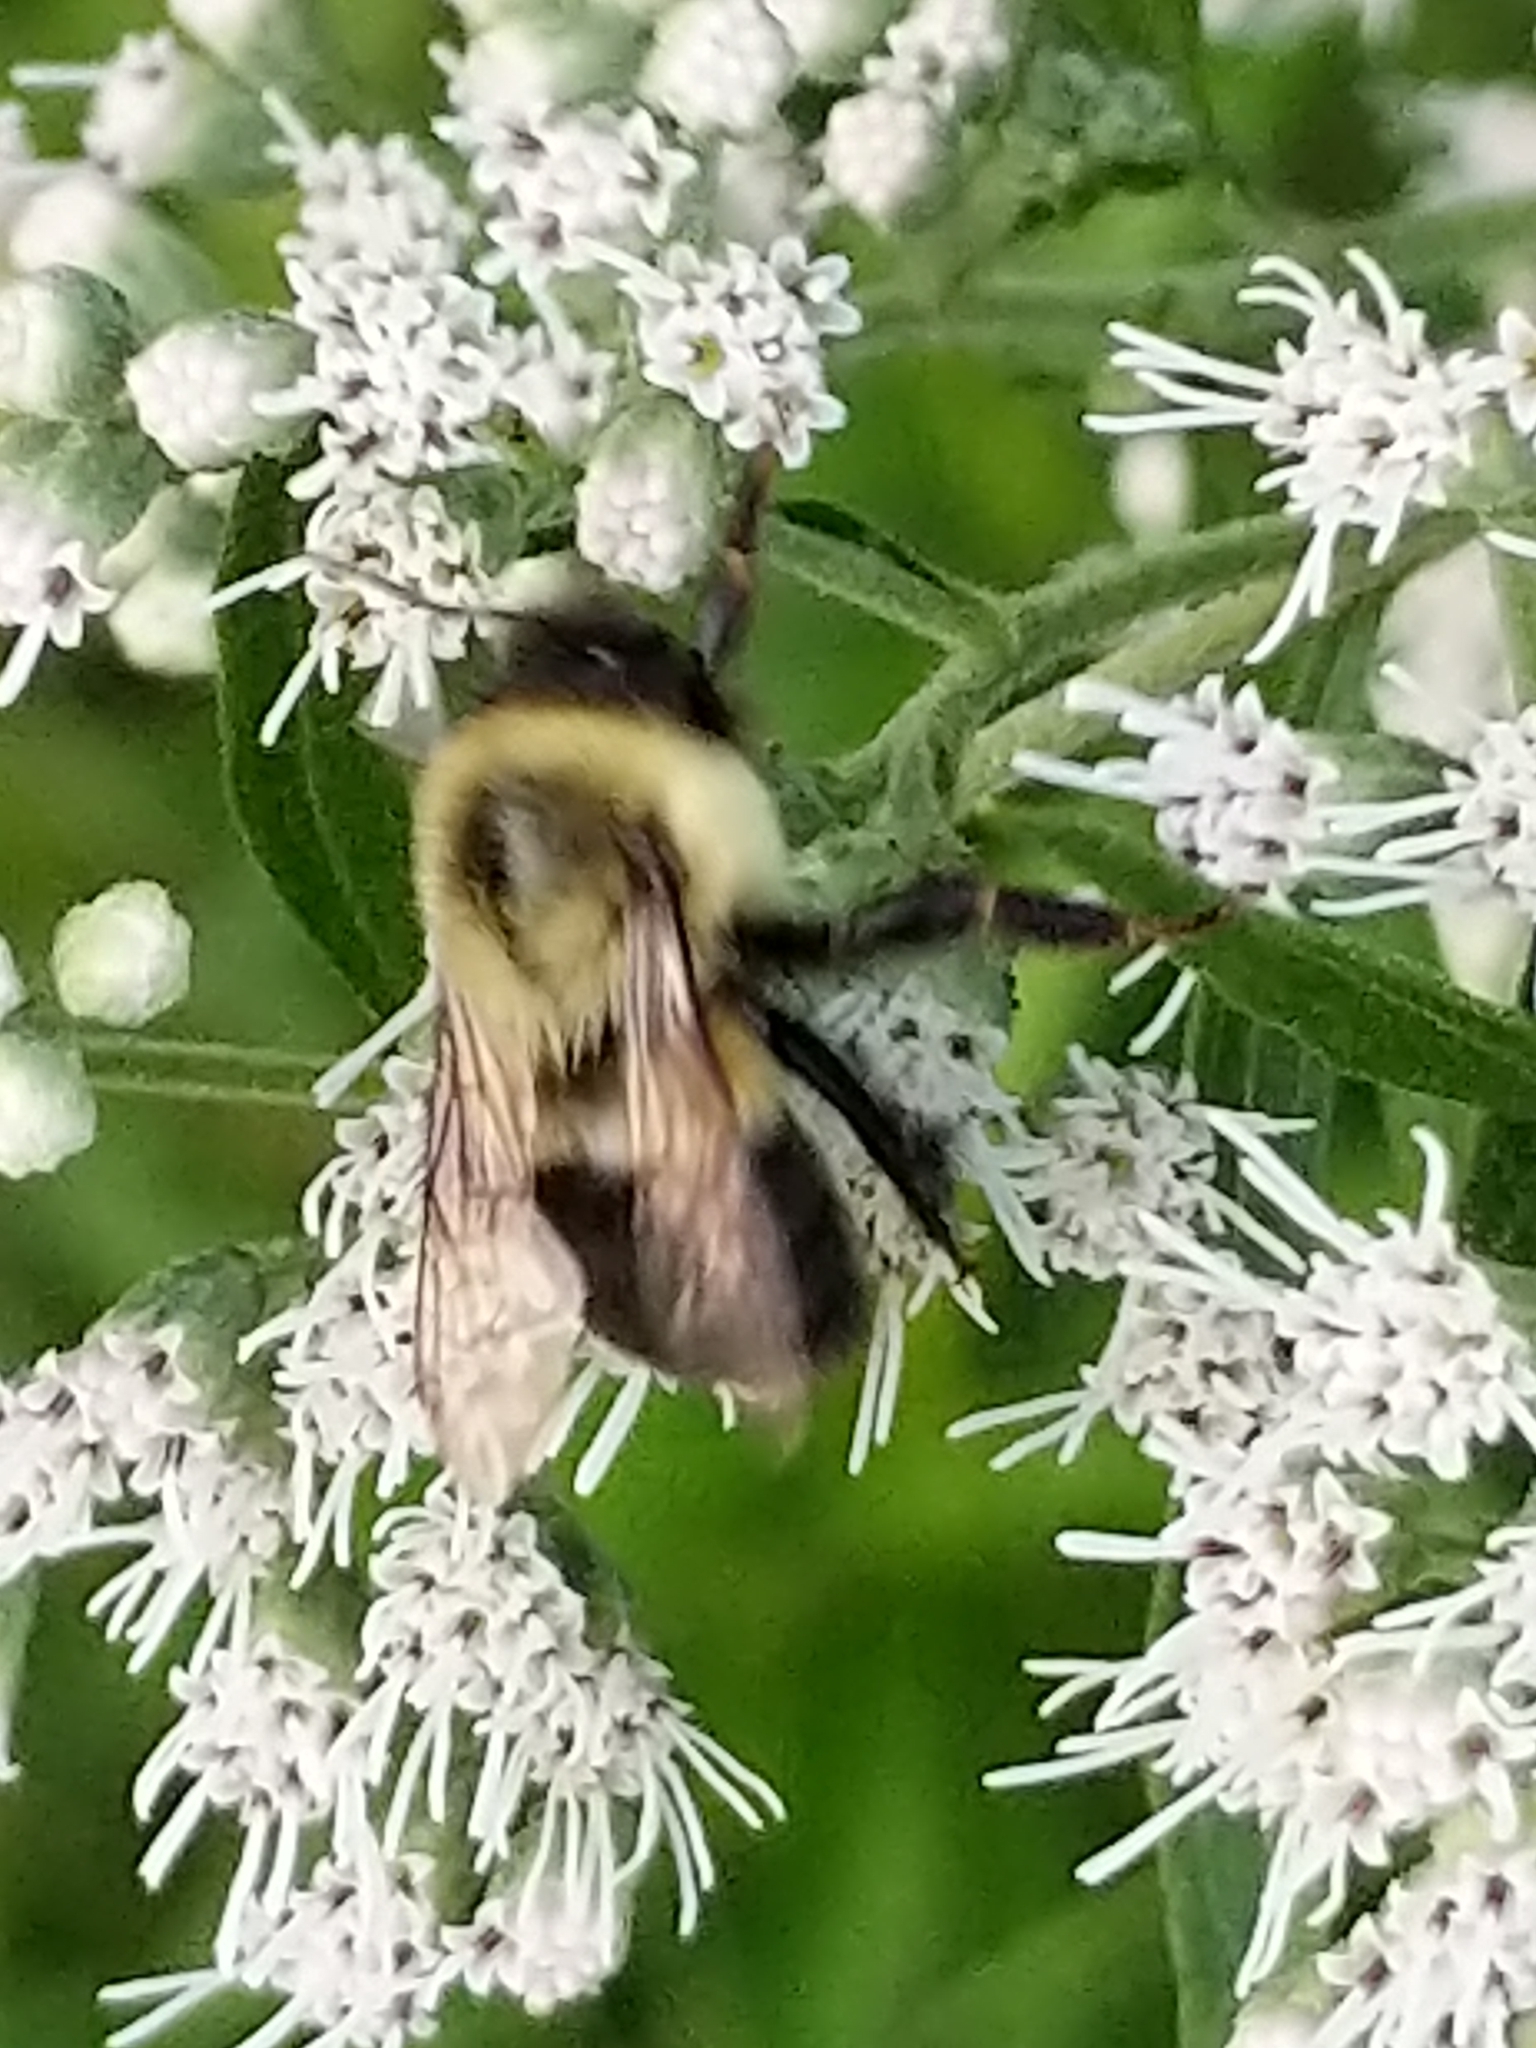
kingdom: Animalia
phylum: Arthropoda
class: Insecta
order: Hymenoptera
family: Apidae
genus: Bombus
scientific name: Bombus impatiens
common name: Common eastern bumble bee
